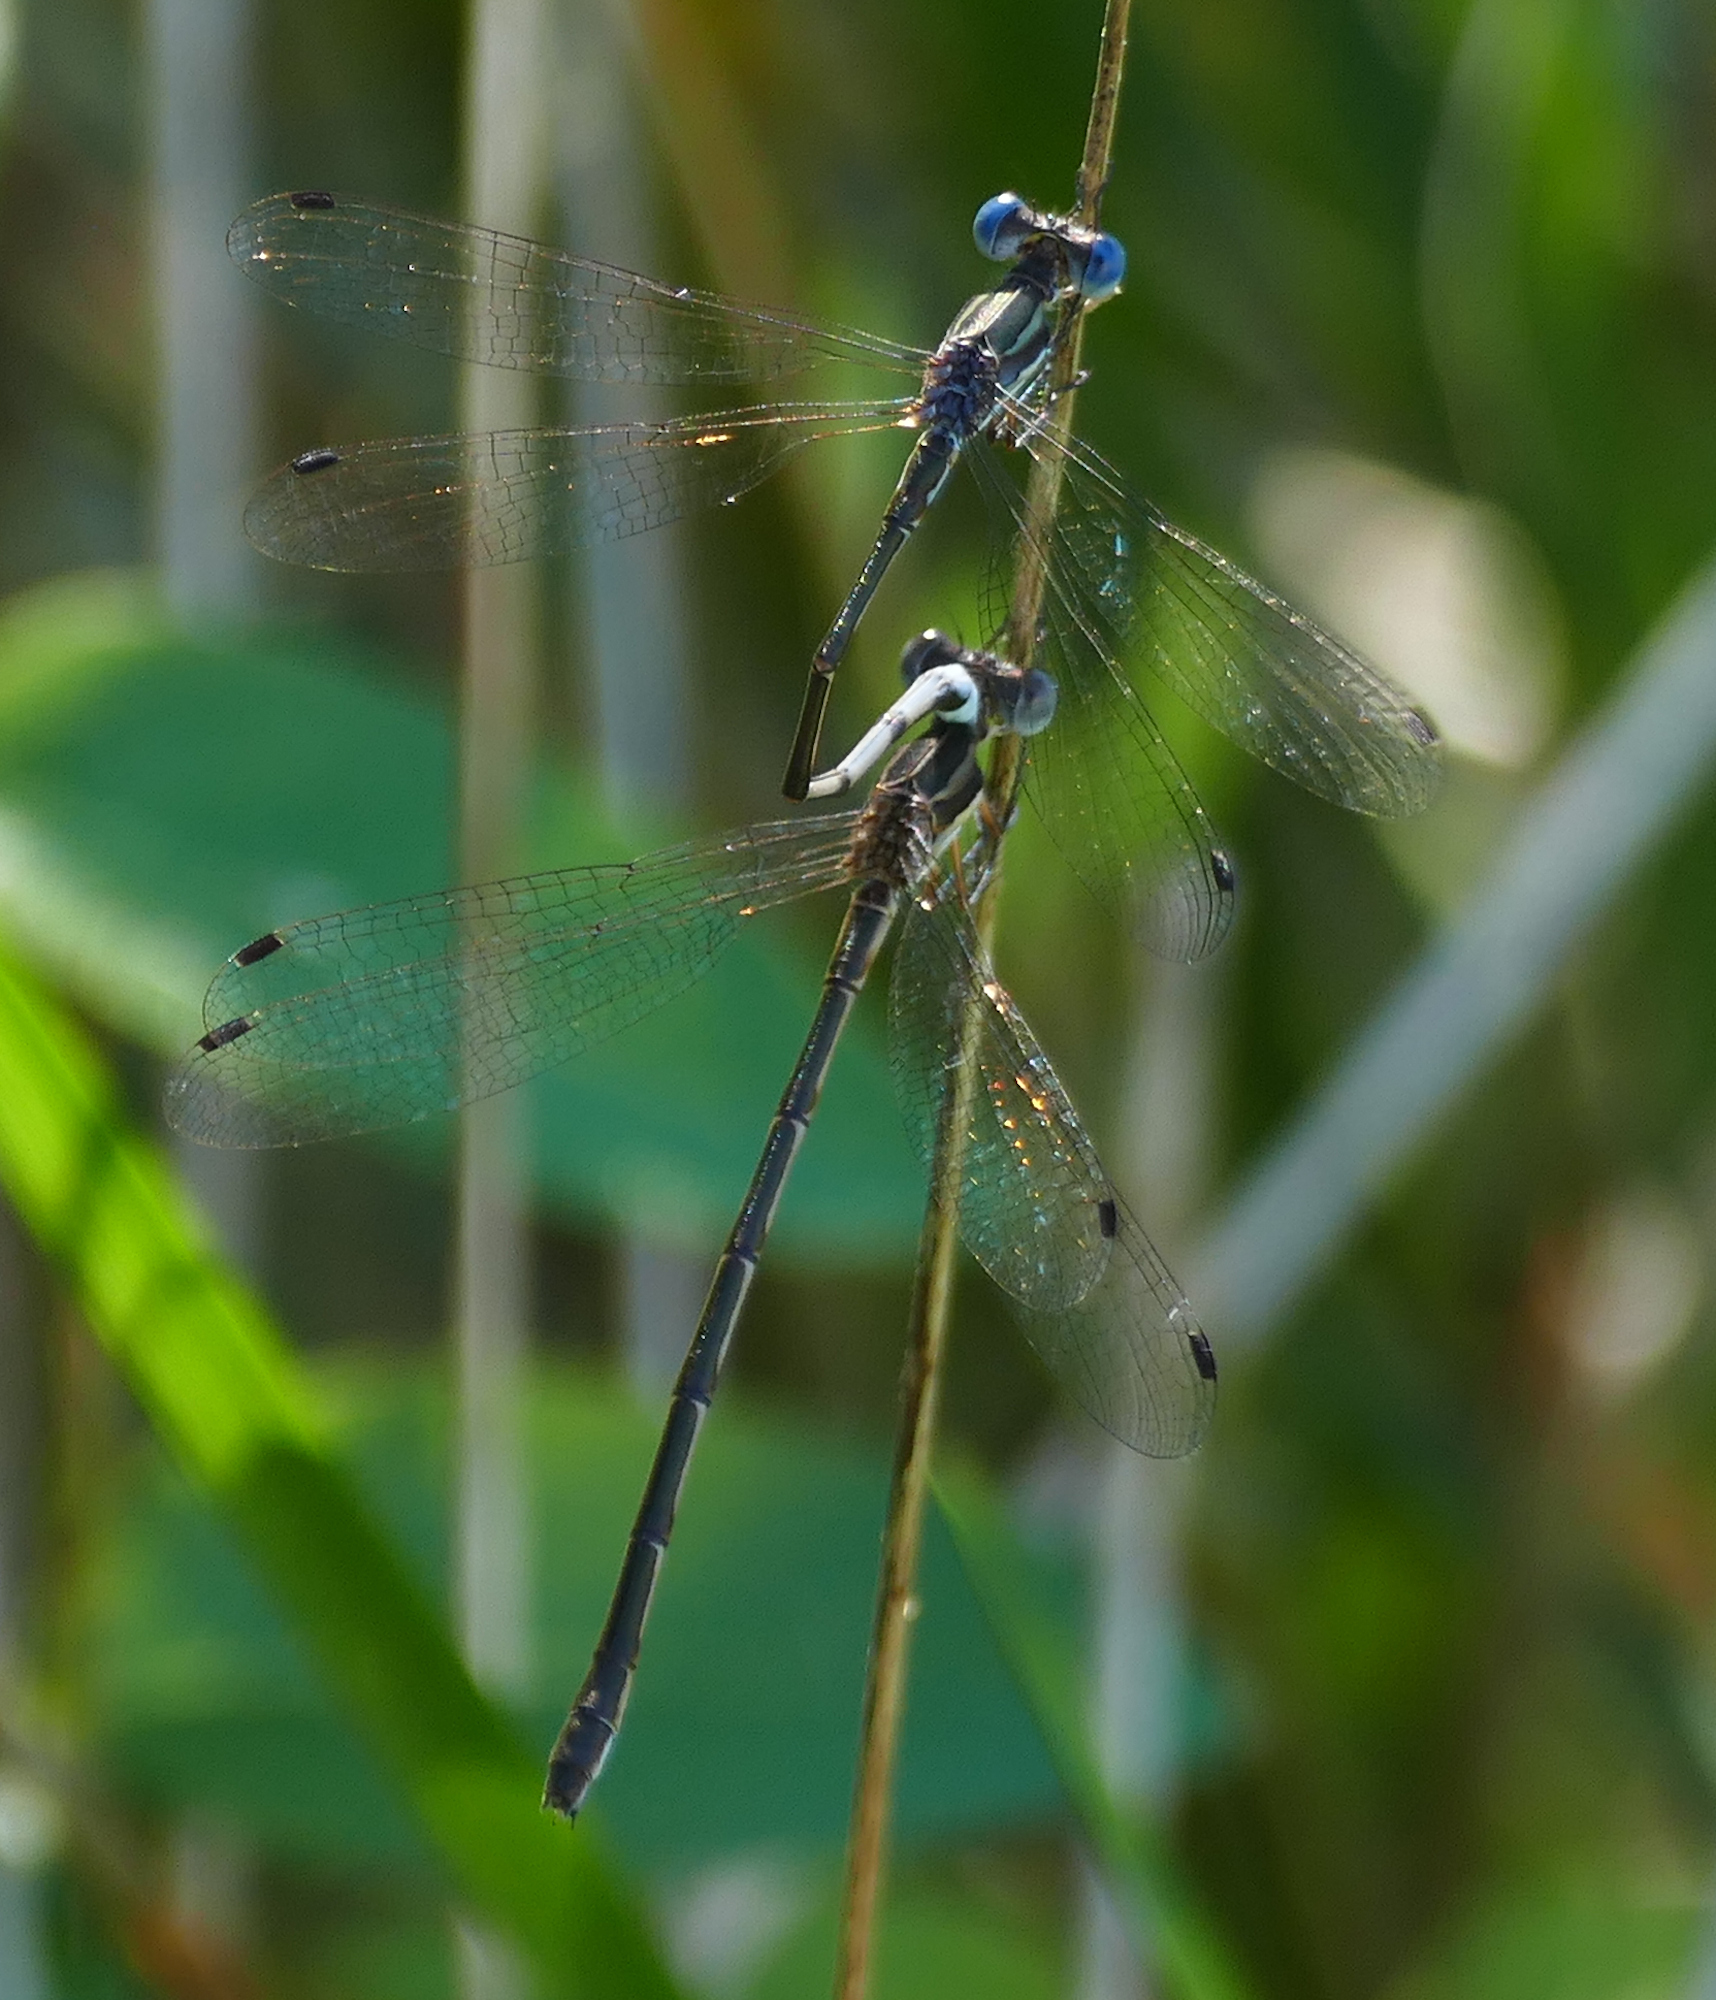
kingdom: Animalia
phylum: Arthropoda
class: Insecta
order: Odonata
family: Lestidae
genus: Lestes
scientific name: Lestes australis
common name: Southern spreadwing
